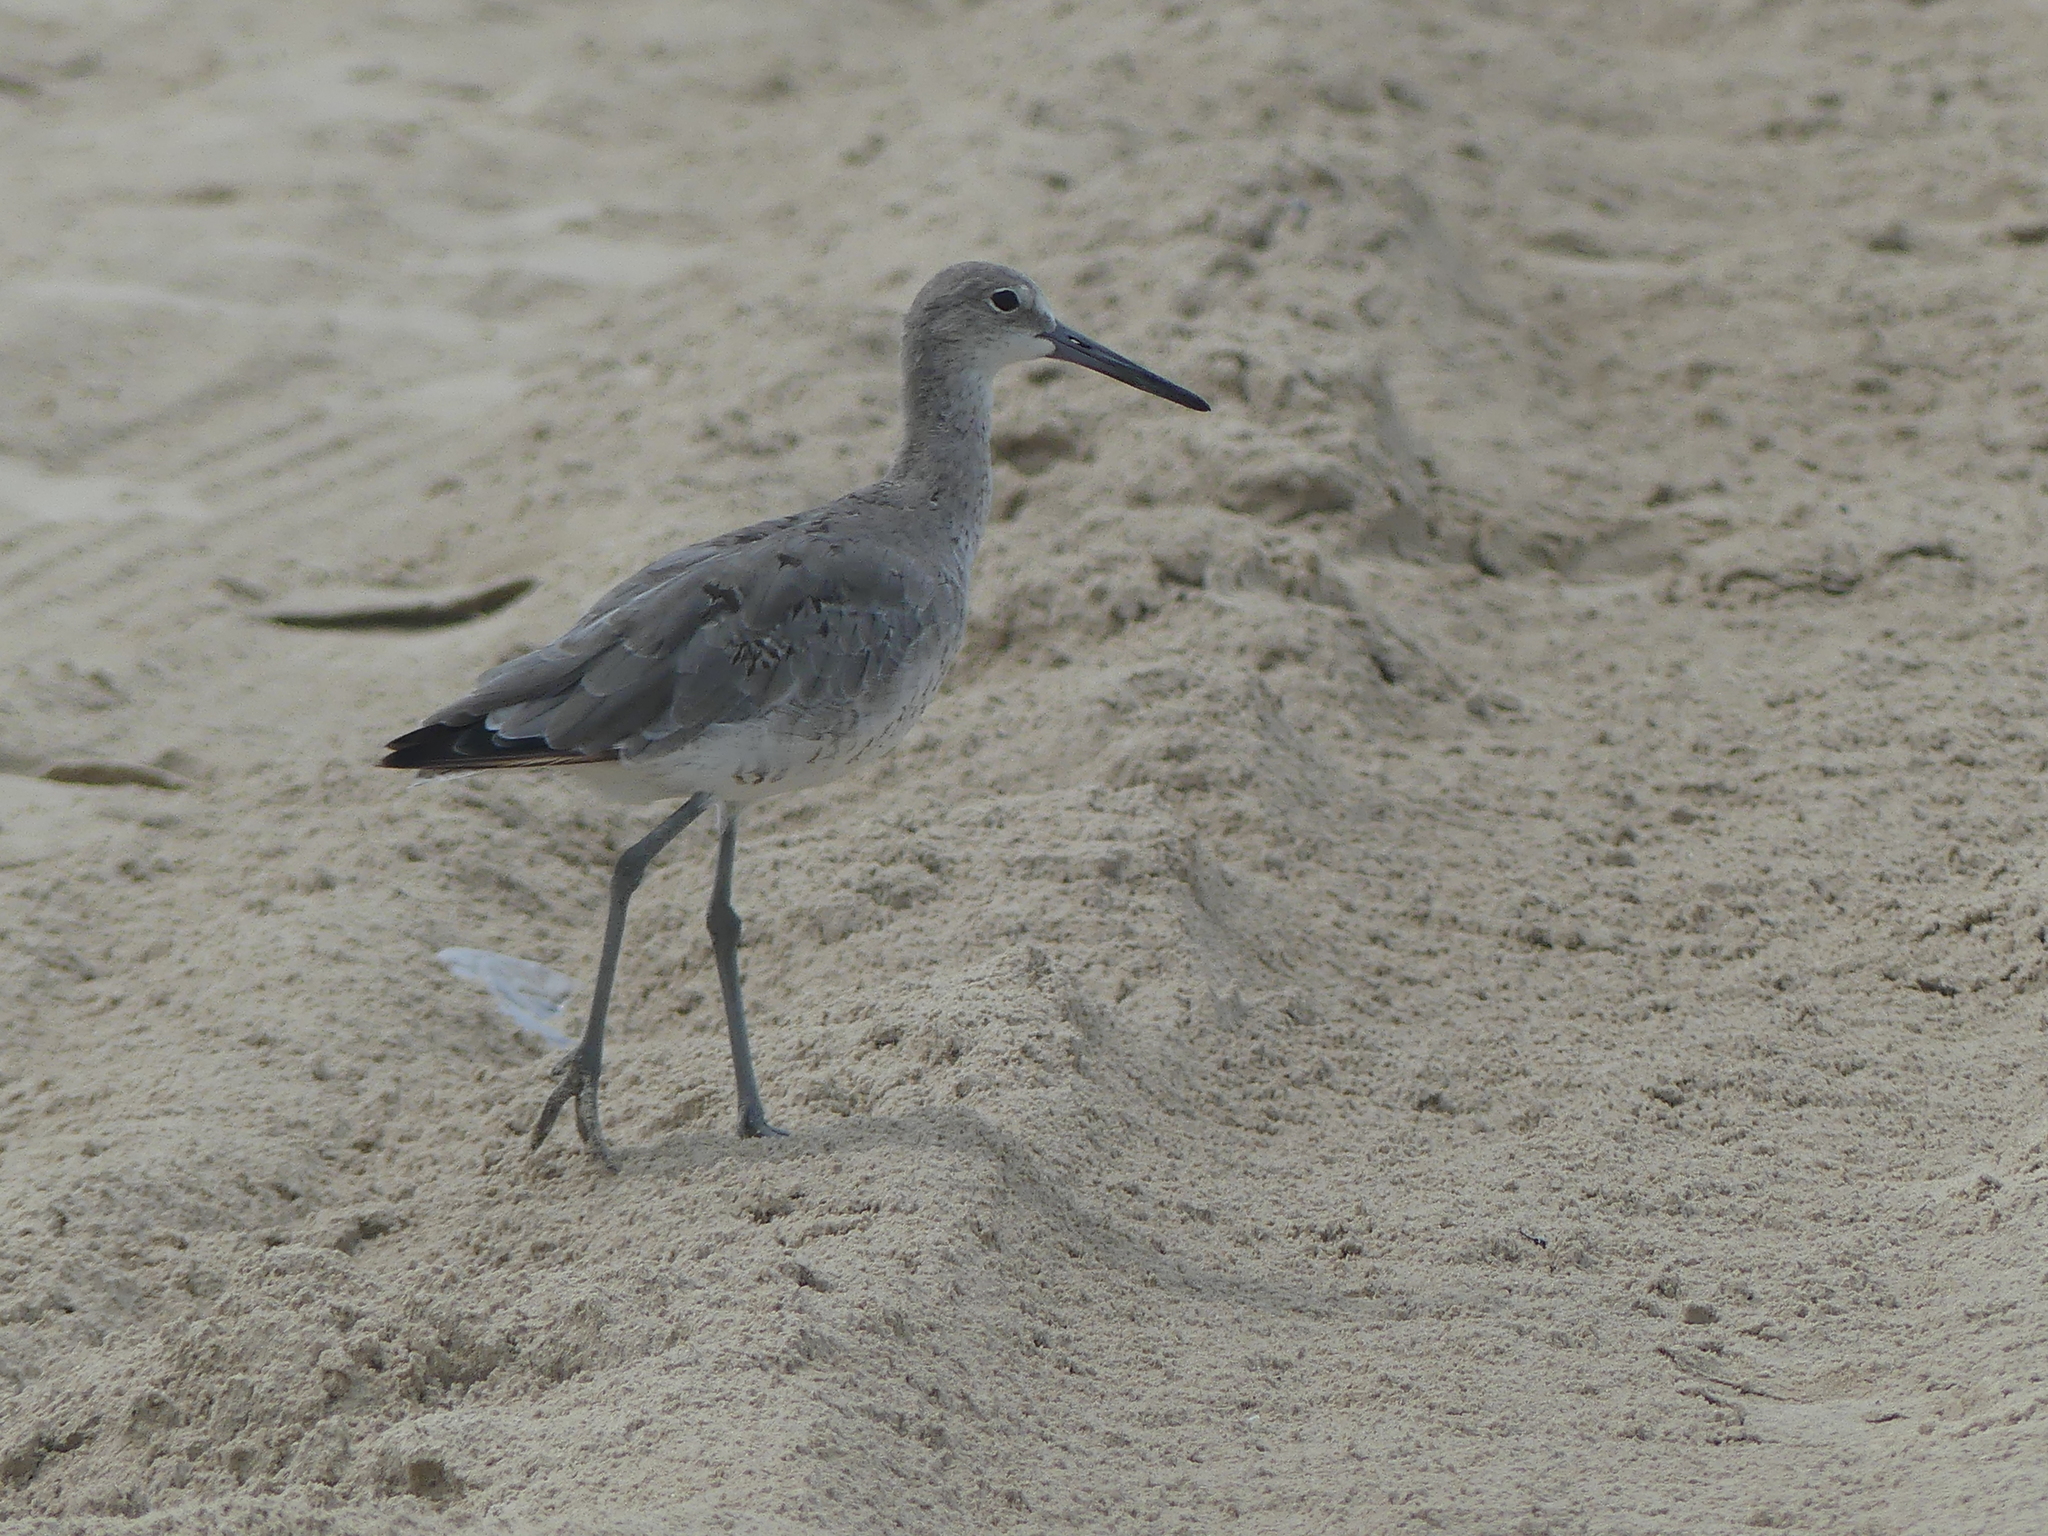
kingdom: Animalia
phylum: Chordata
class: Aves
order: Charadriiformes
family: Scolopacidae
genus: Tringa
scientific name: Tringa semipalmata
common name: Willet
